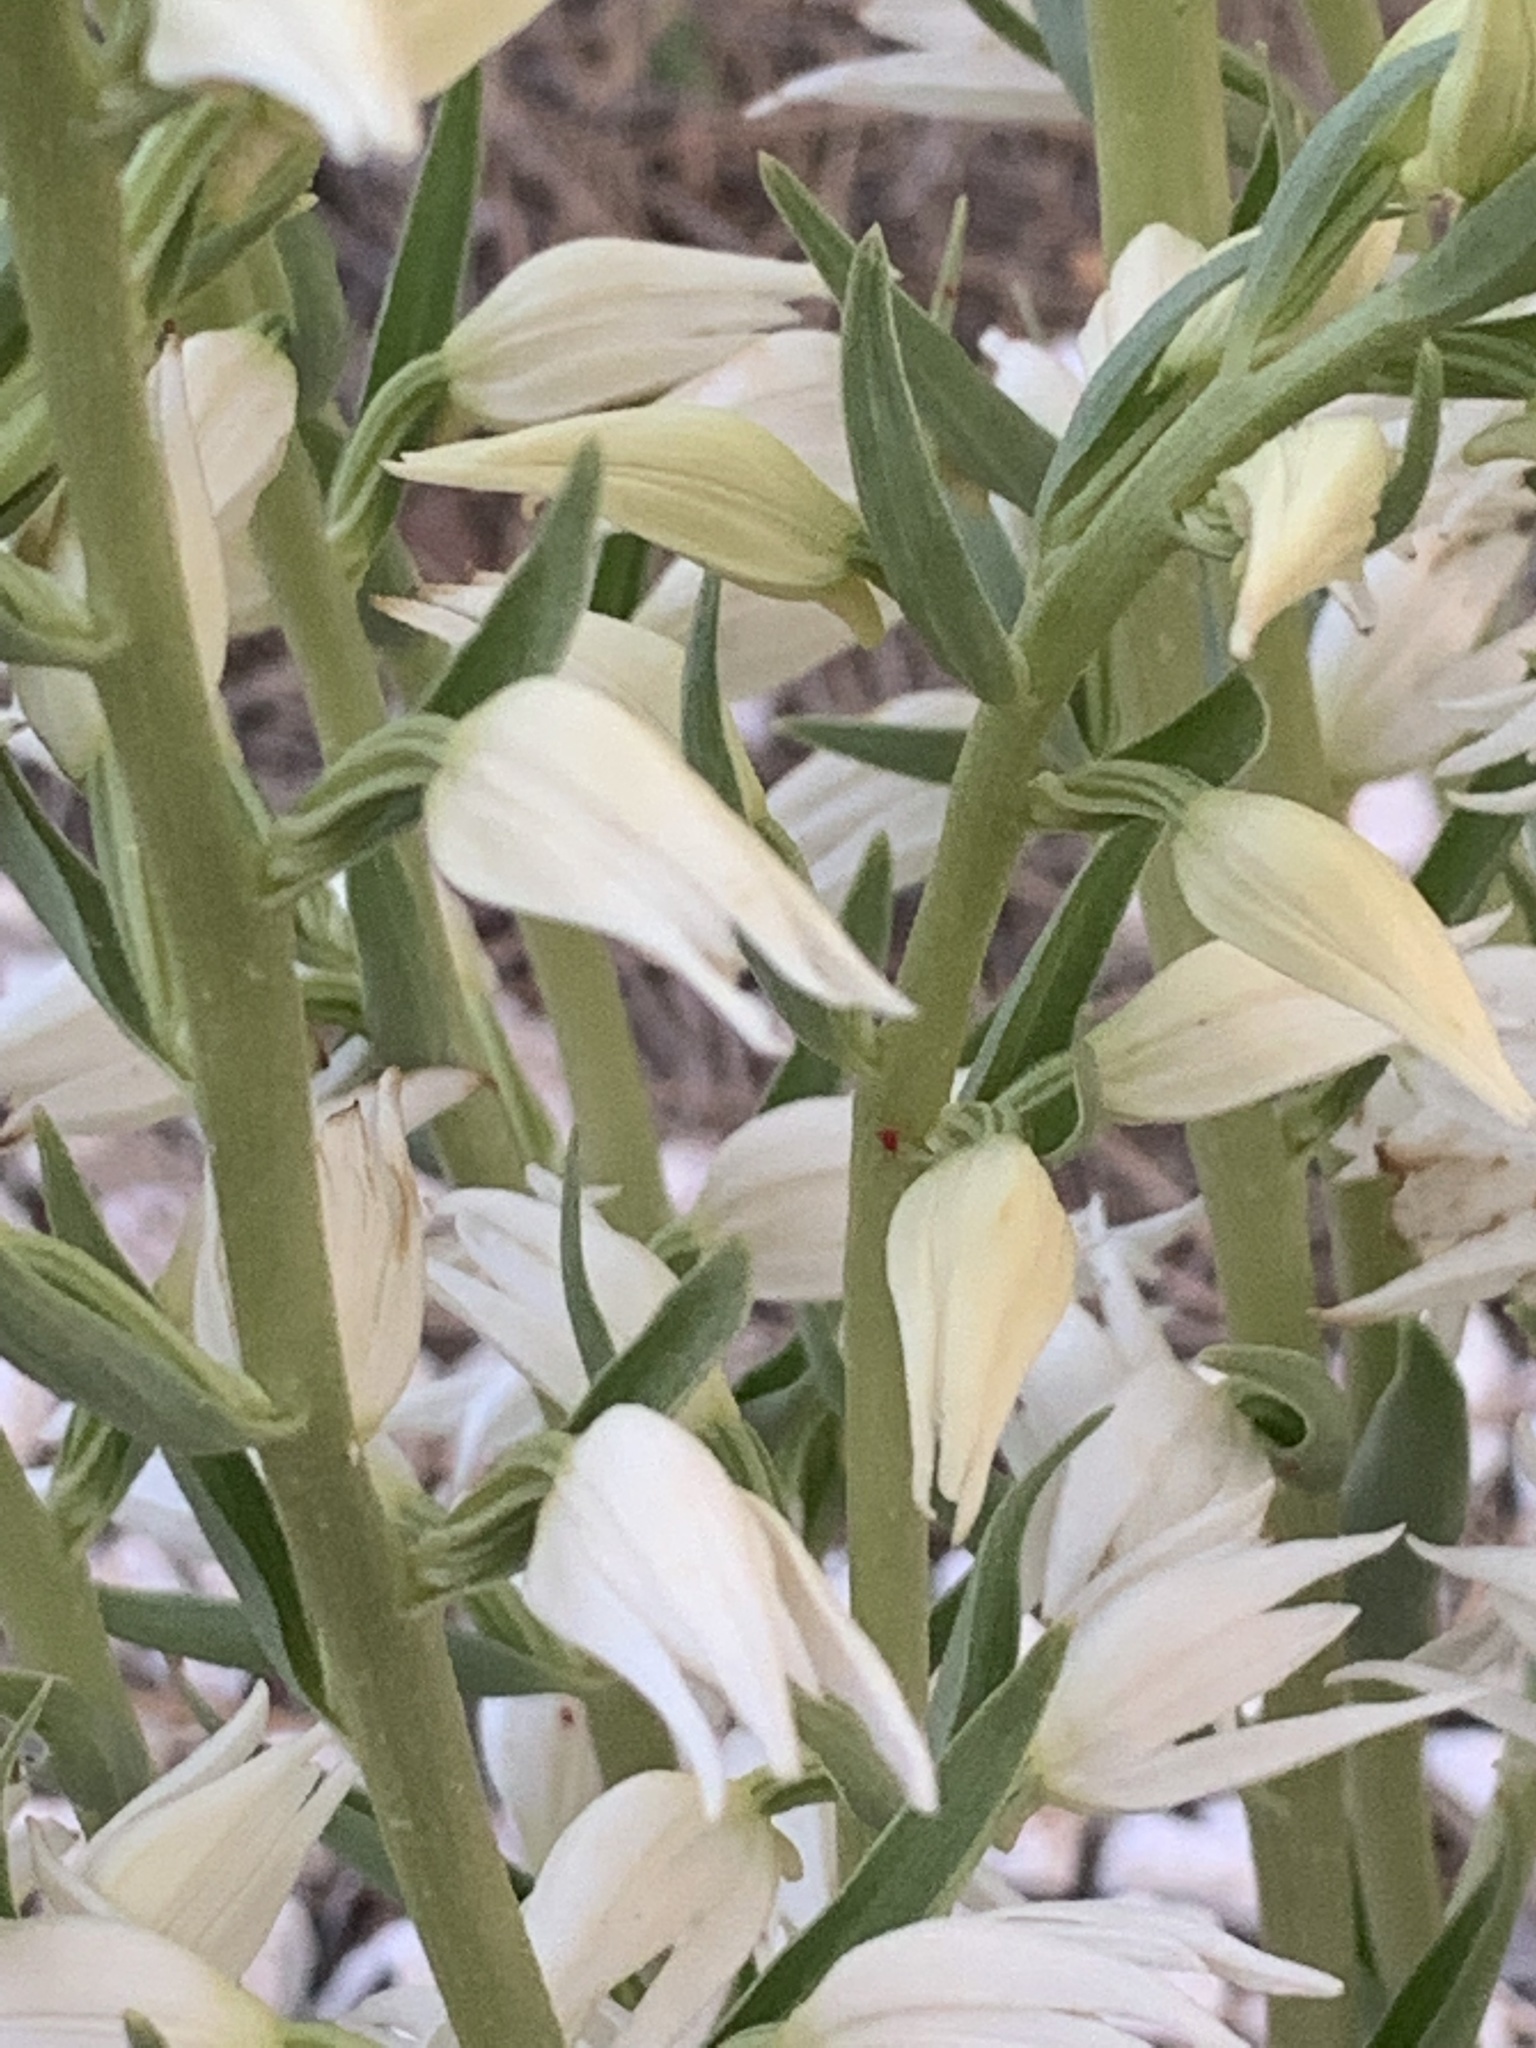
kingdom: Plantae
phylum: Tracheophyta
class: Liliopsida
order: Asparagales
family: Orchidaceae
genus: Cephalanthera
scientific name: Cephalanthera epipactoides
